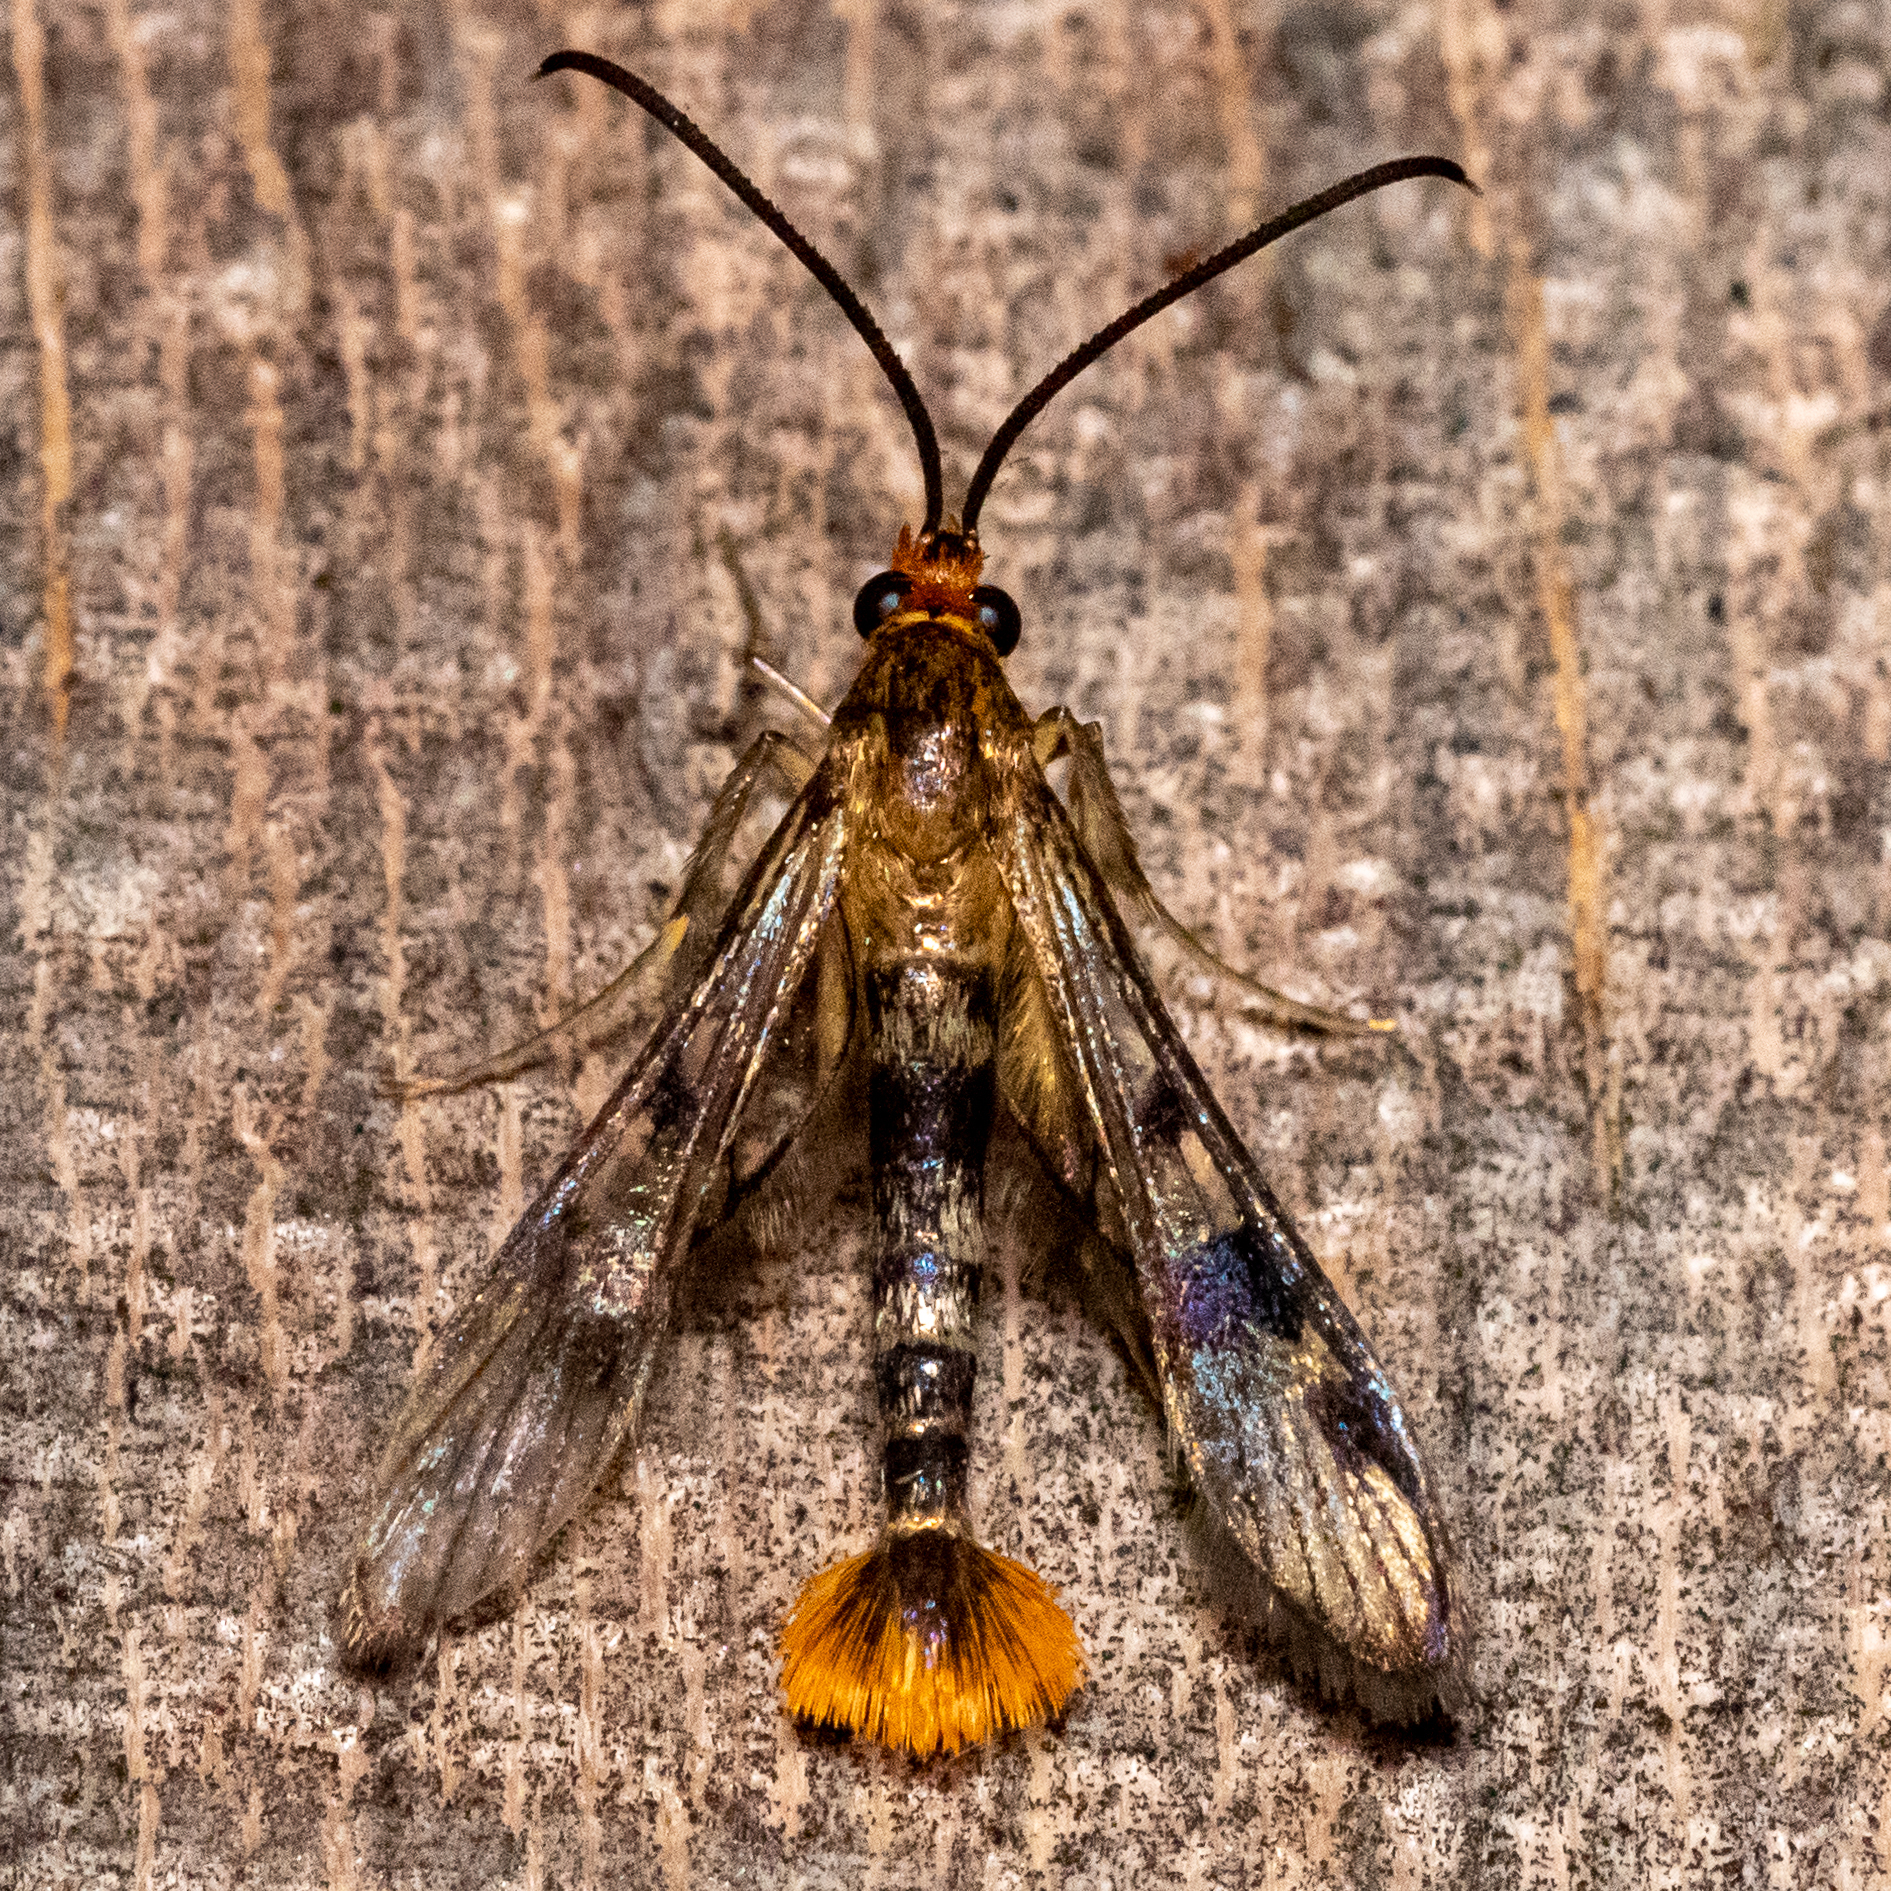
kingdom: Animalia
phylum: Arthropoda
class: Insecta
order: Lepidoptera
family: Sesiidae
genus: Synanthedon
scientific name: Synanthedon acerni
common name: Maple callus borer moth
